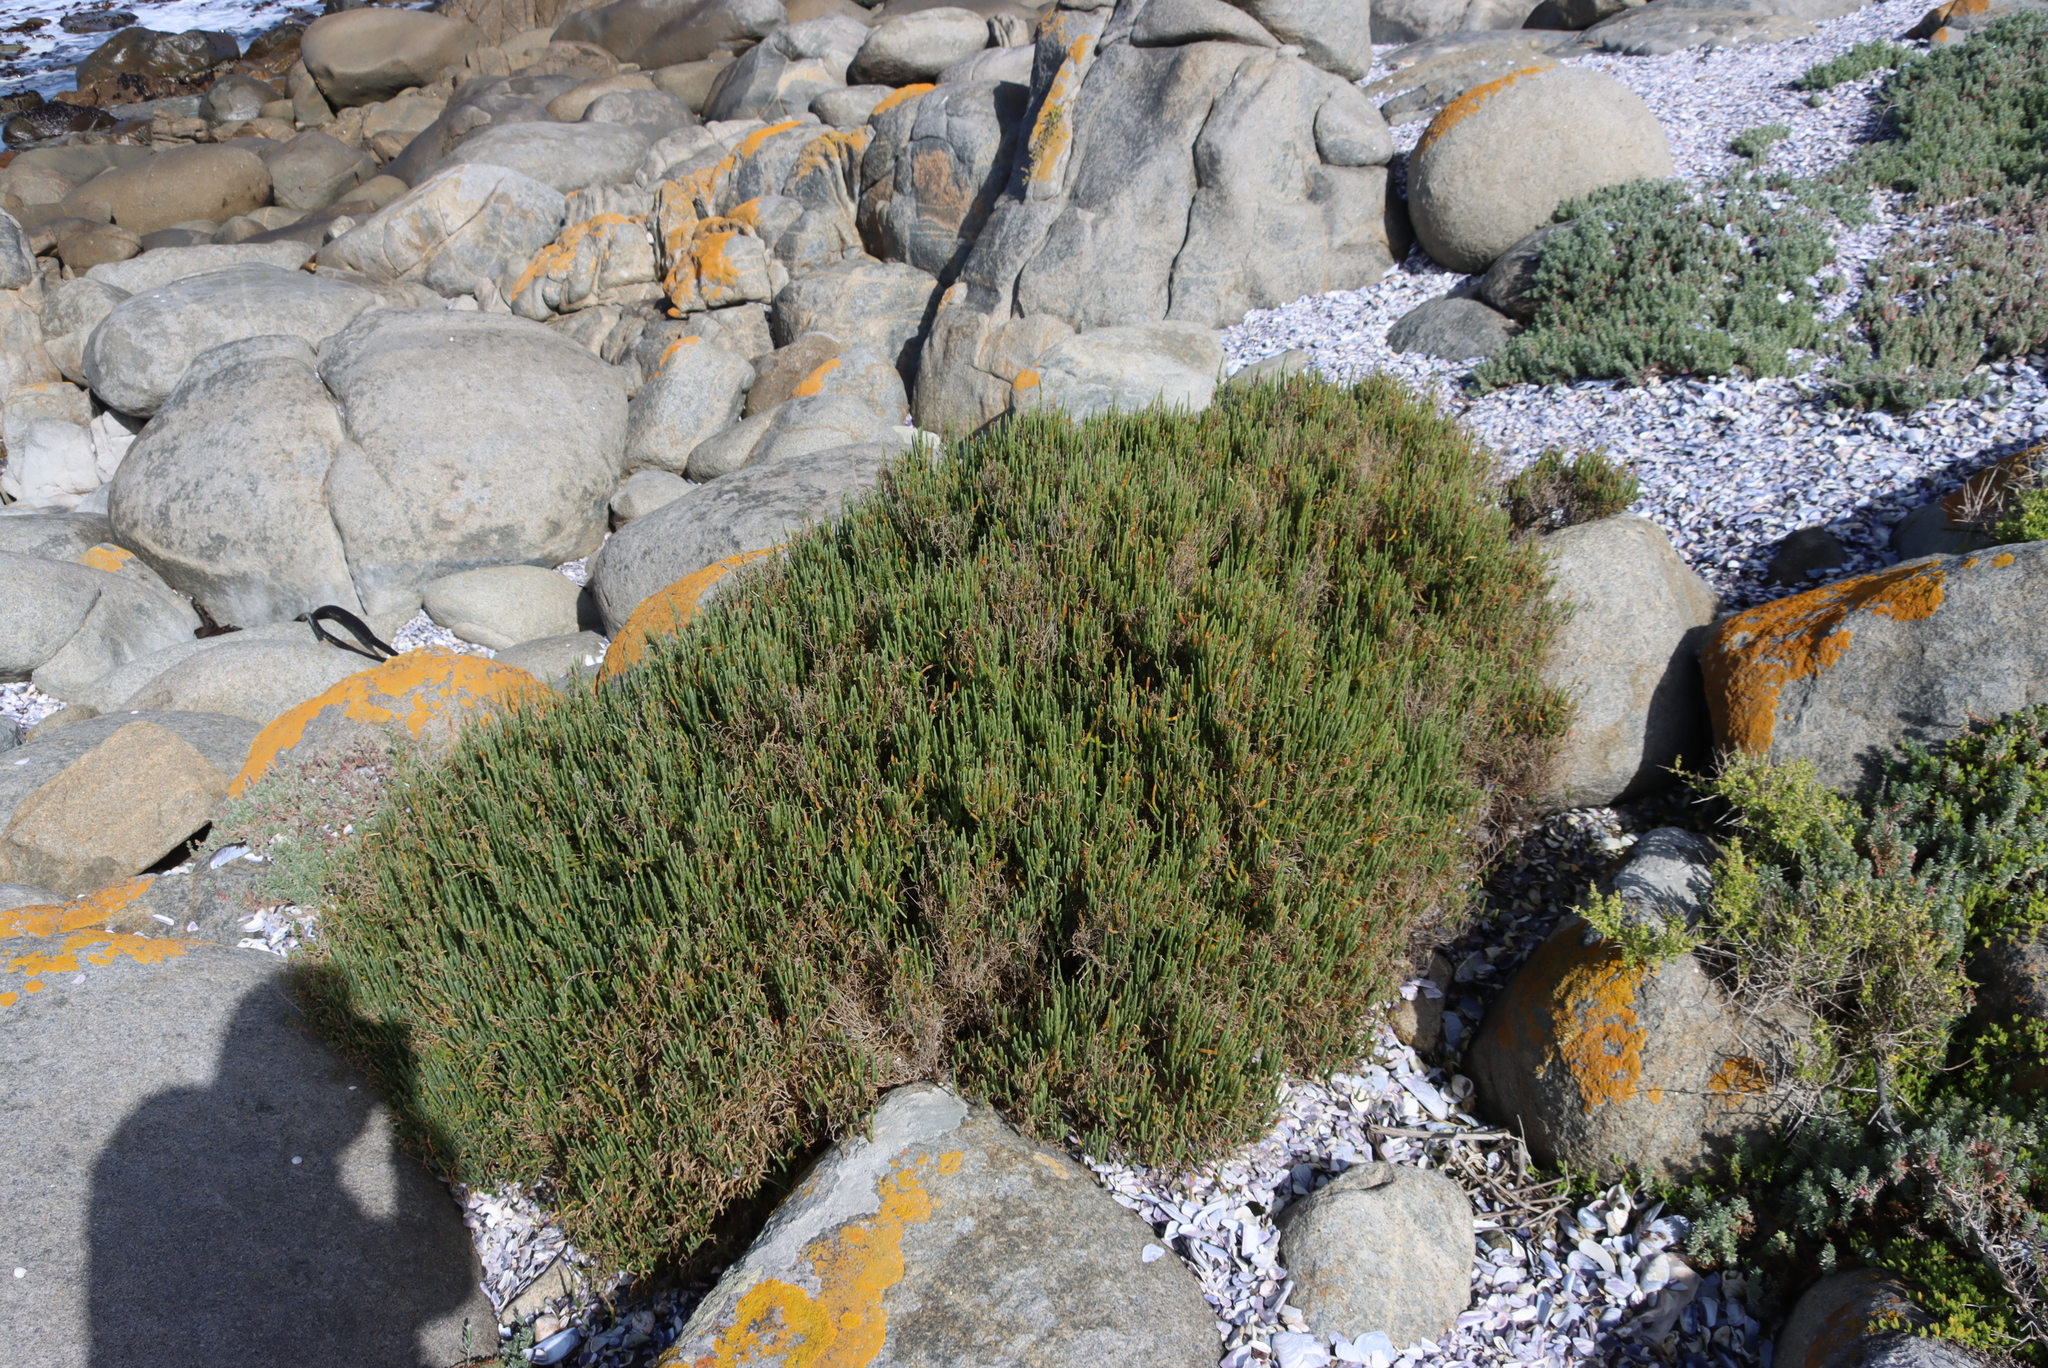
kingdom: Plantae
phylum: Tracheophyta
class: Magnoliopsida
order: Caryophyllales
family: Amaranthaceae
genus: Salicornia
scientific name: Salicornia littorea
